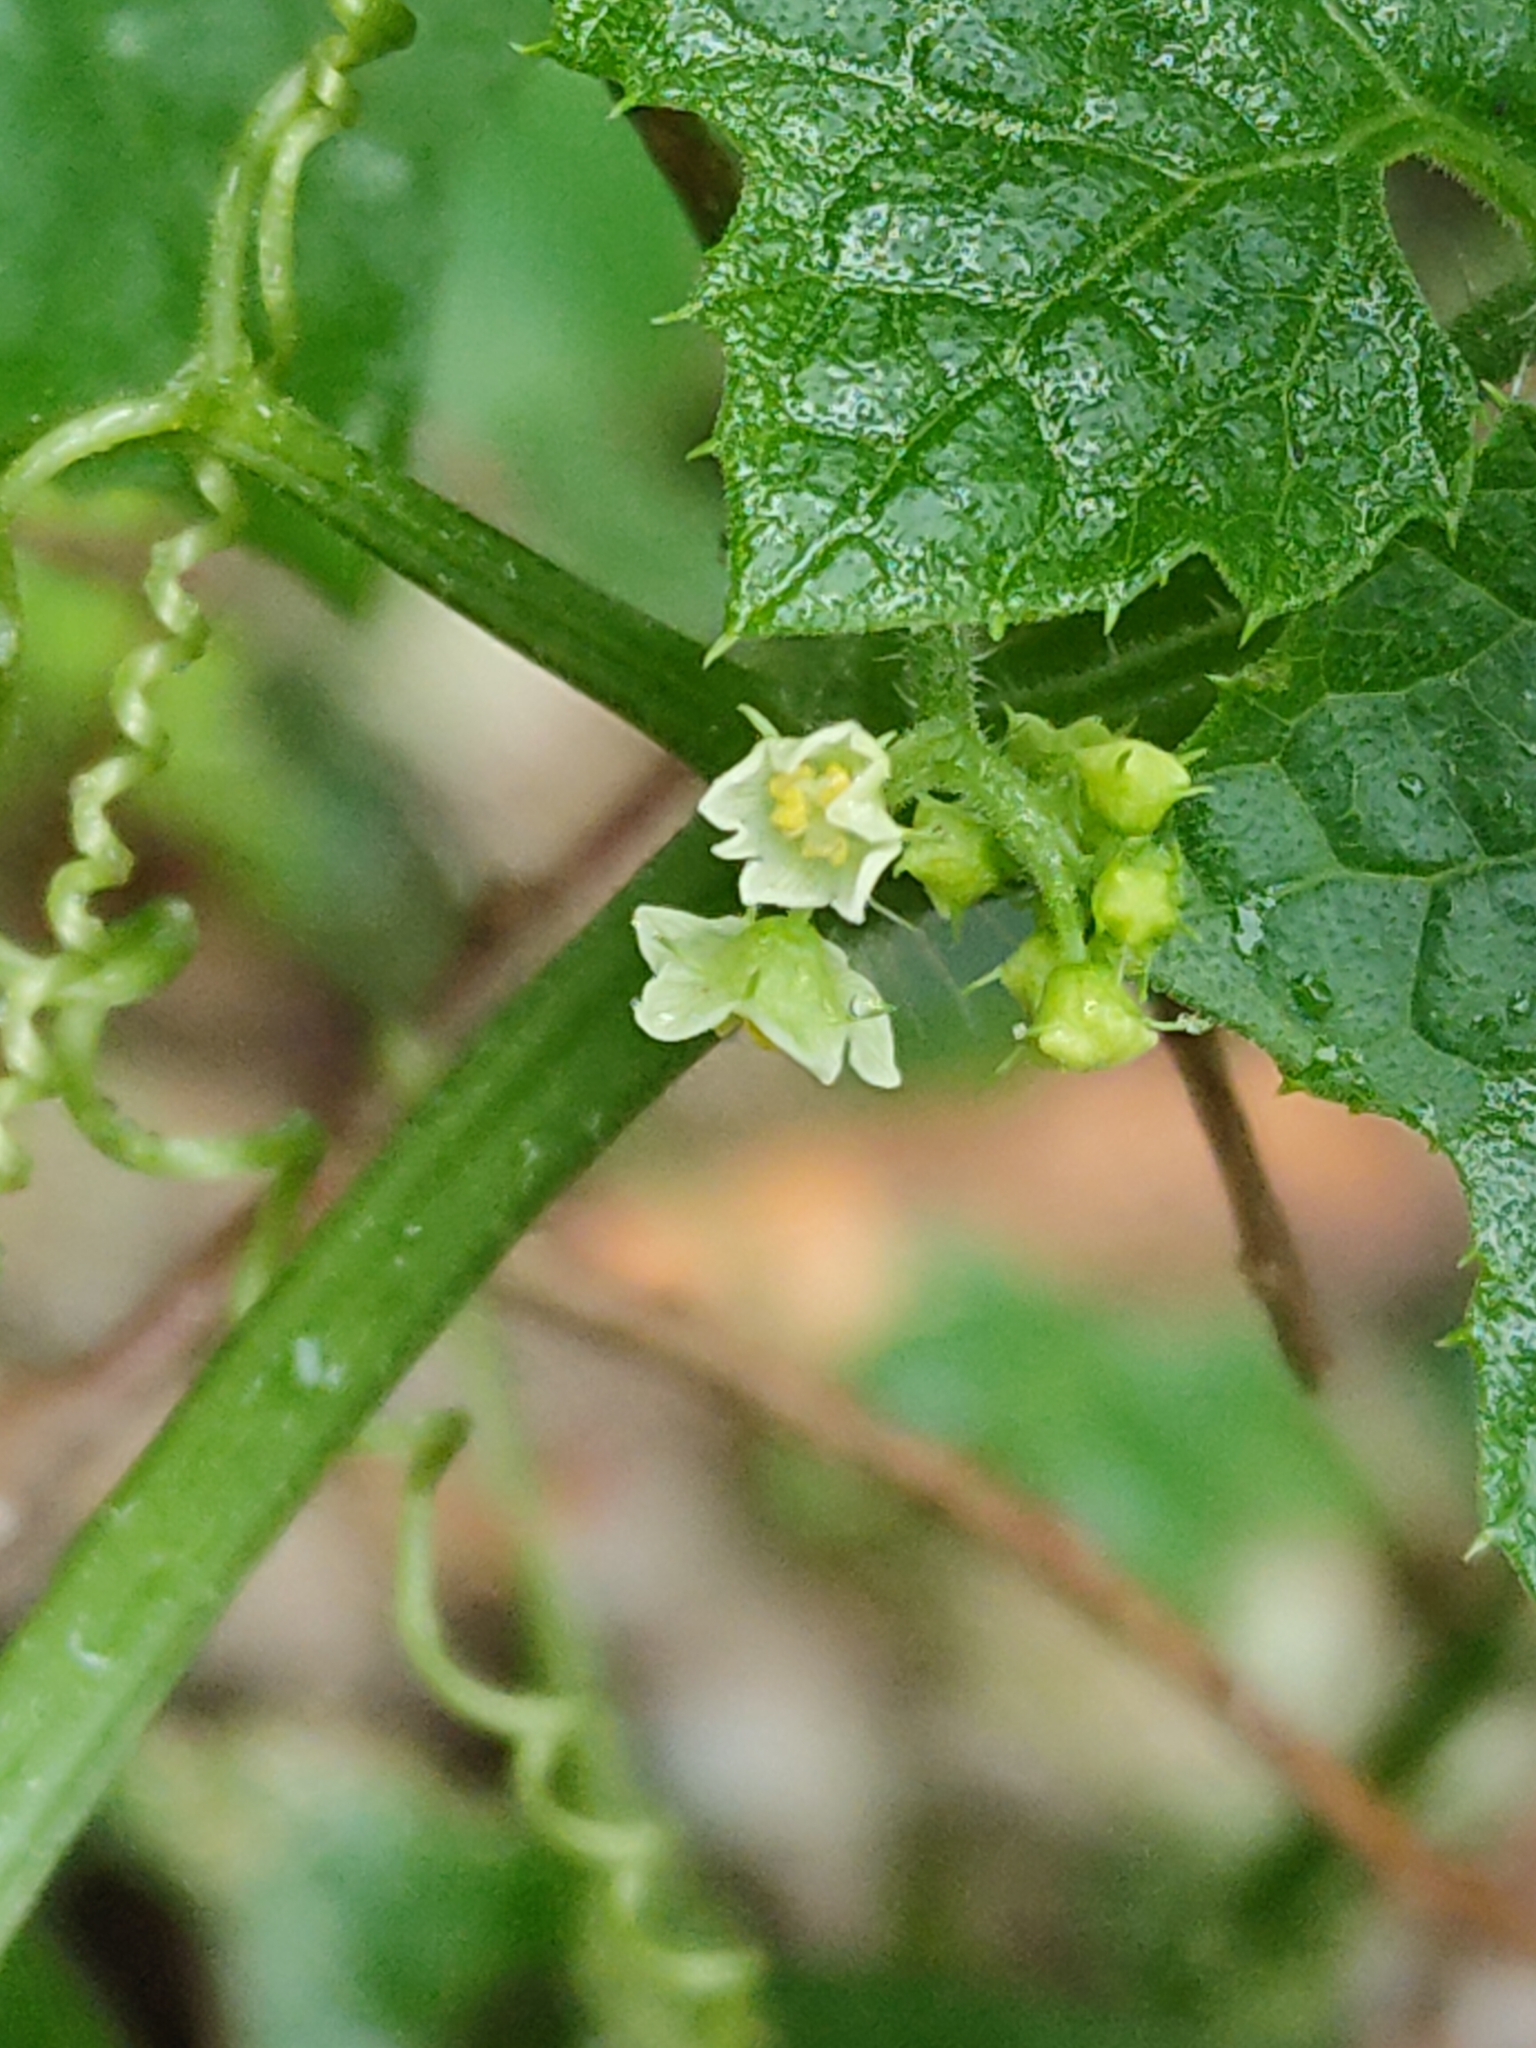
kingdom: Plantae
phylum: Tracheophyta
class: Magnoliopsida
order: Cucurbitales
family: Cucurbitaceae
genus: Sicyos
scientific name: Sicyos australis
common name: Angle-cucumber
